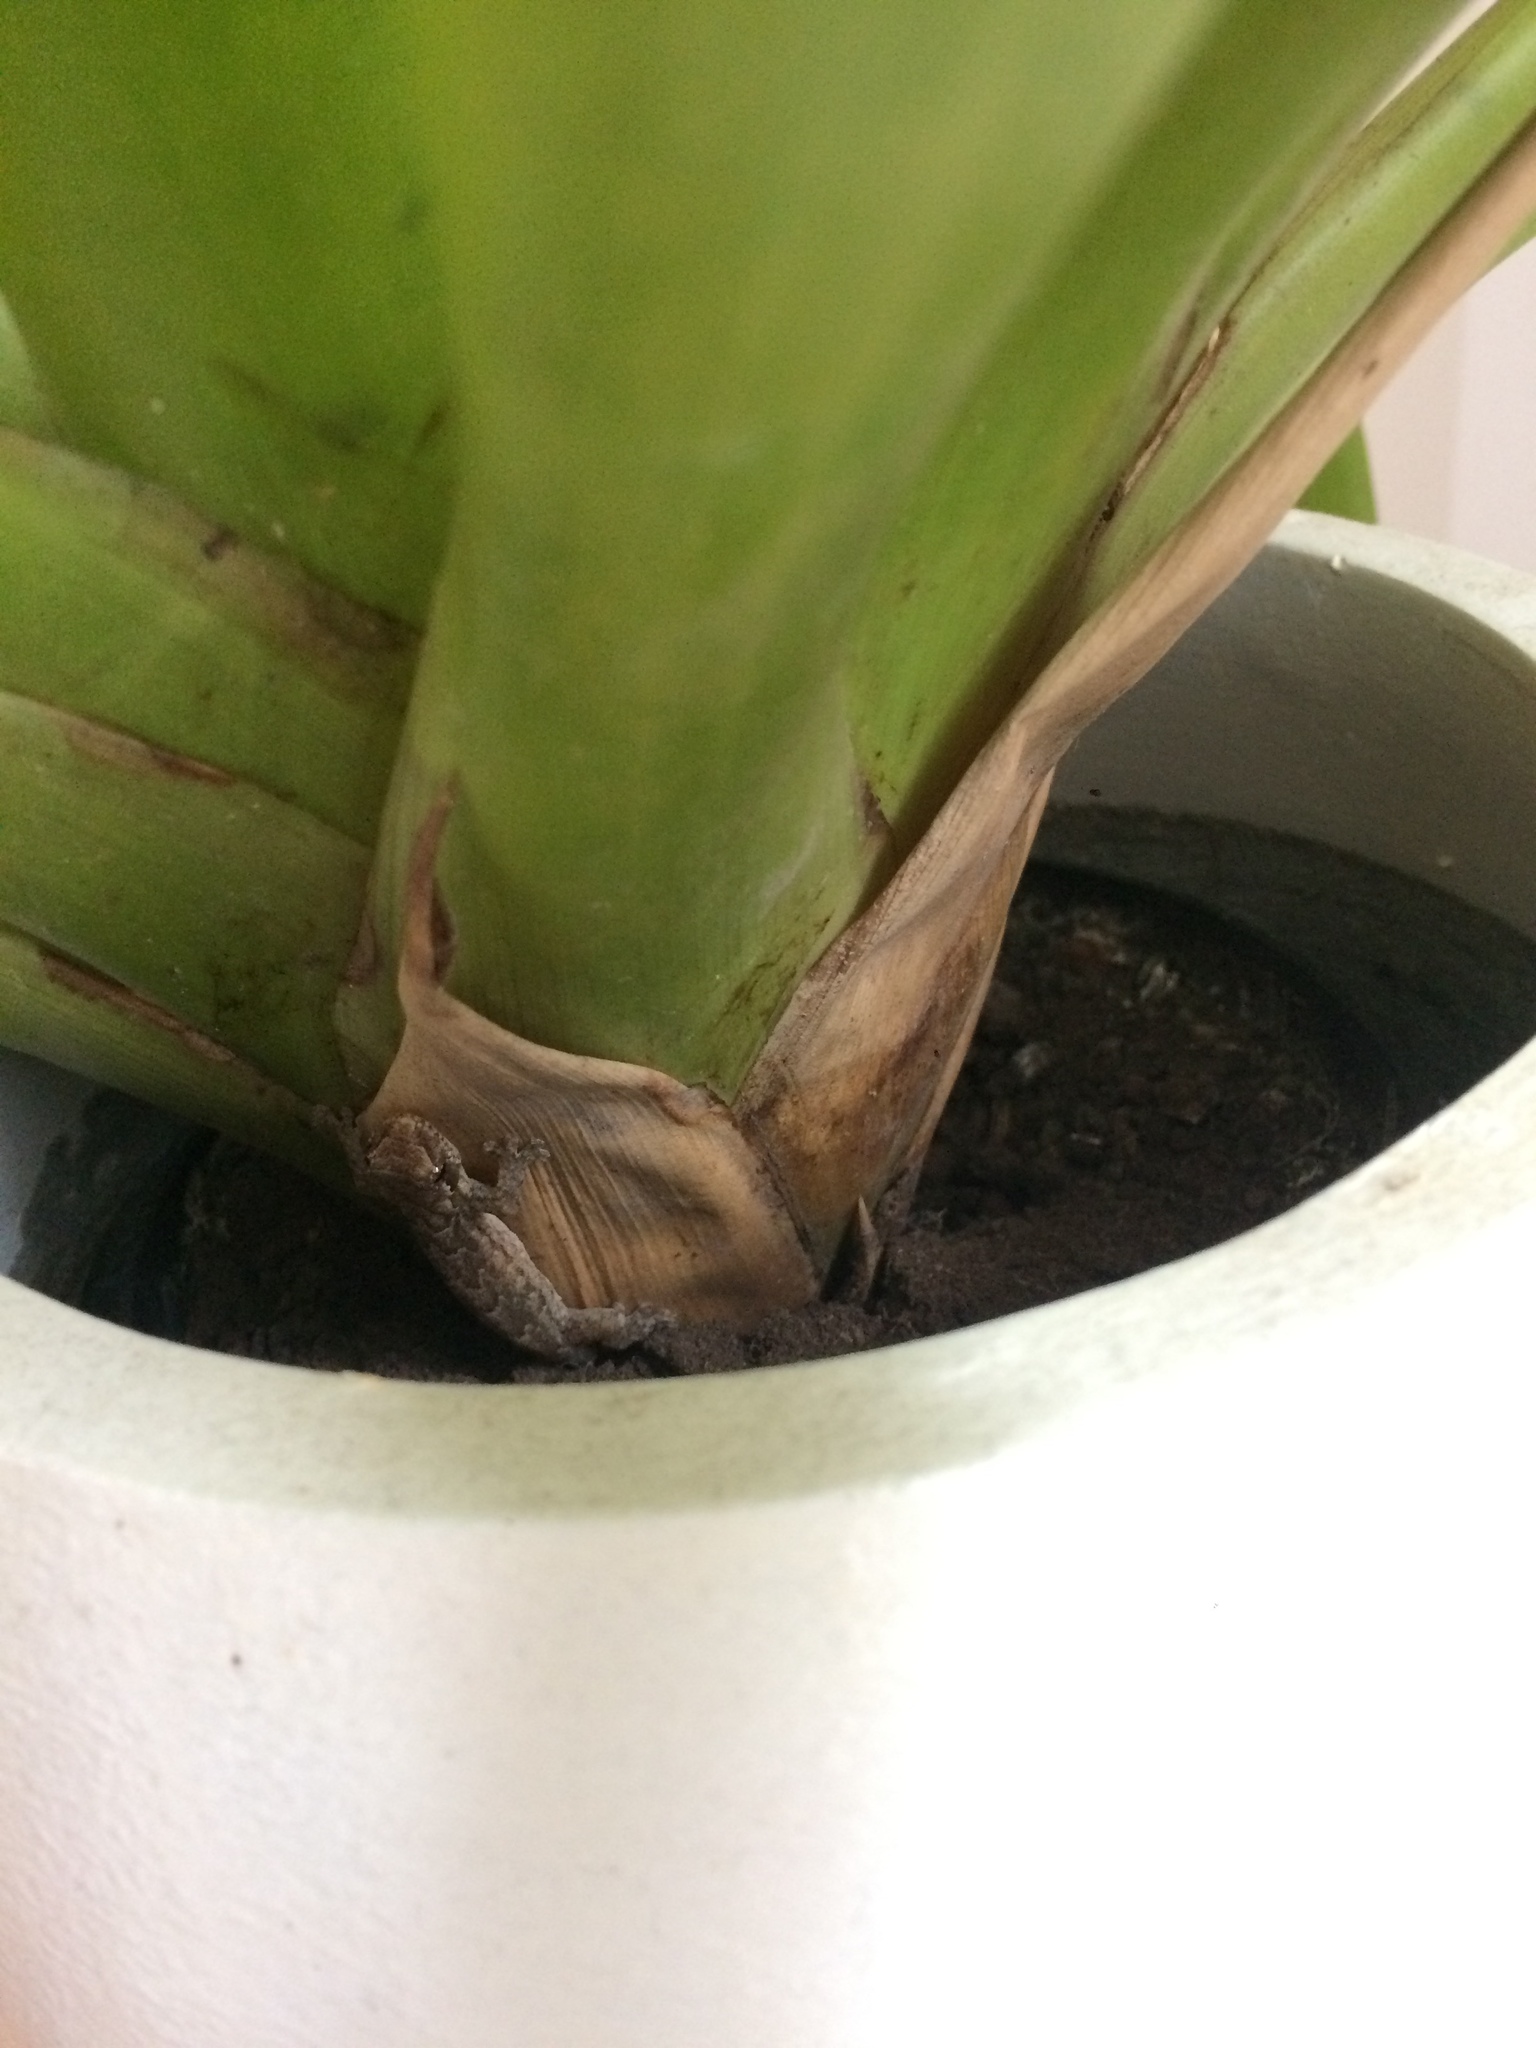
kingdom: Animalia
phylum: Chordata
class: Squamata
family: Gekkonidae
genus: Lepidodactylus
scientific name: Lepidodactylus lugubris
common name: Mourning gecko
